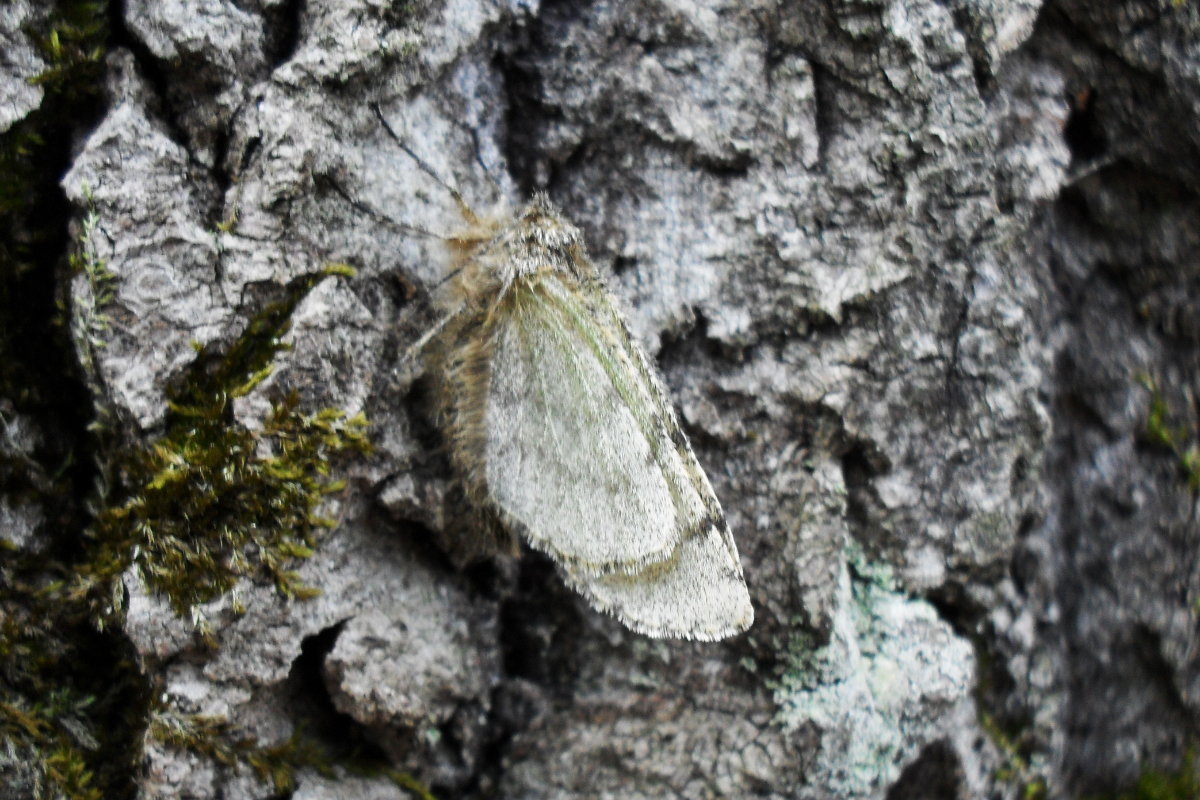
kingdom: Animalia
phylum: Arthropoda
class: Insecta
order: Lepidoptera
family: Geometridae
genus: Lycia
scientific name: Lycia hirtaria
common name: Brindled beauty
